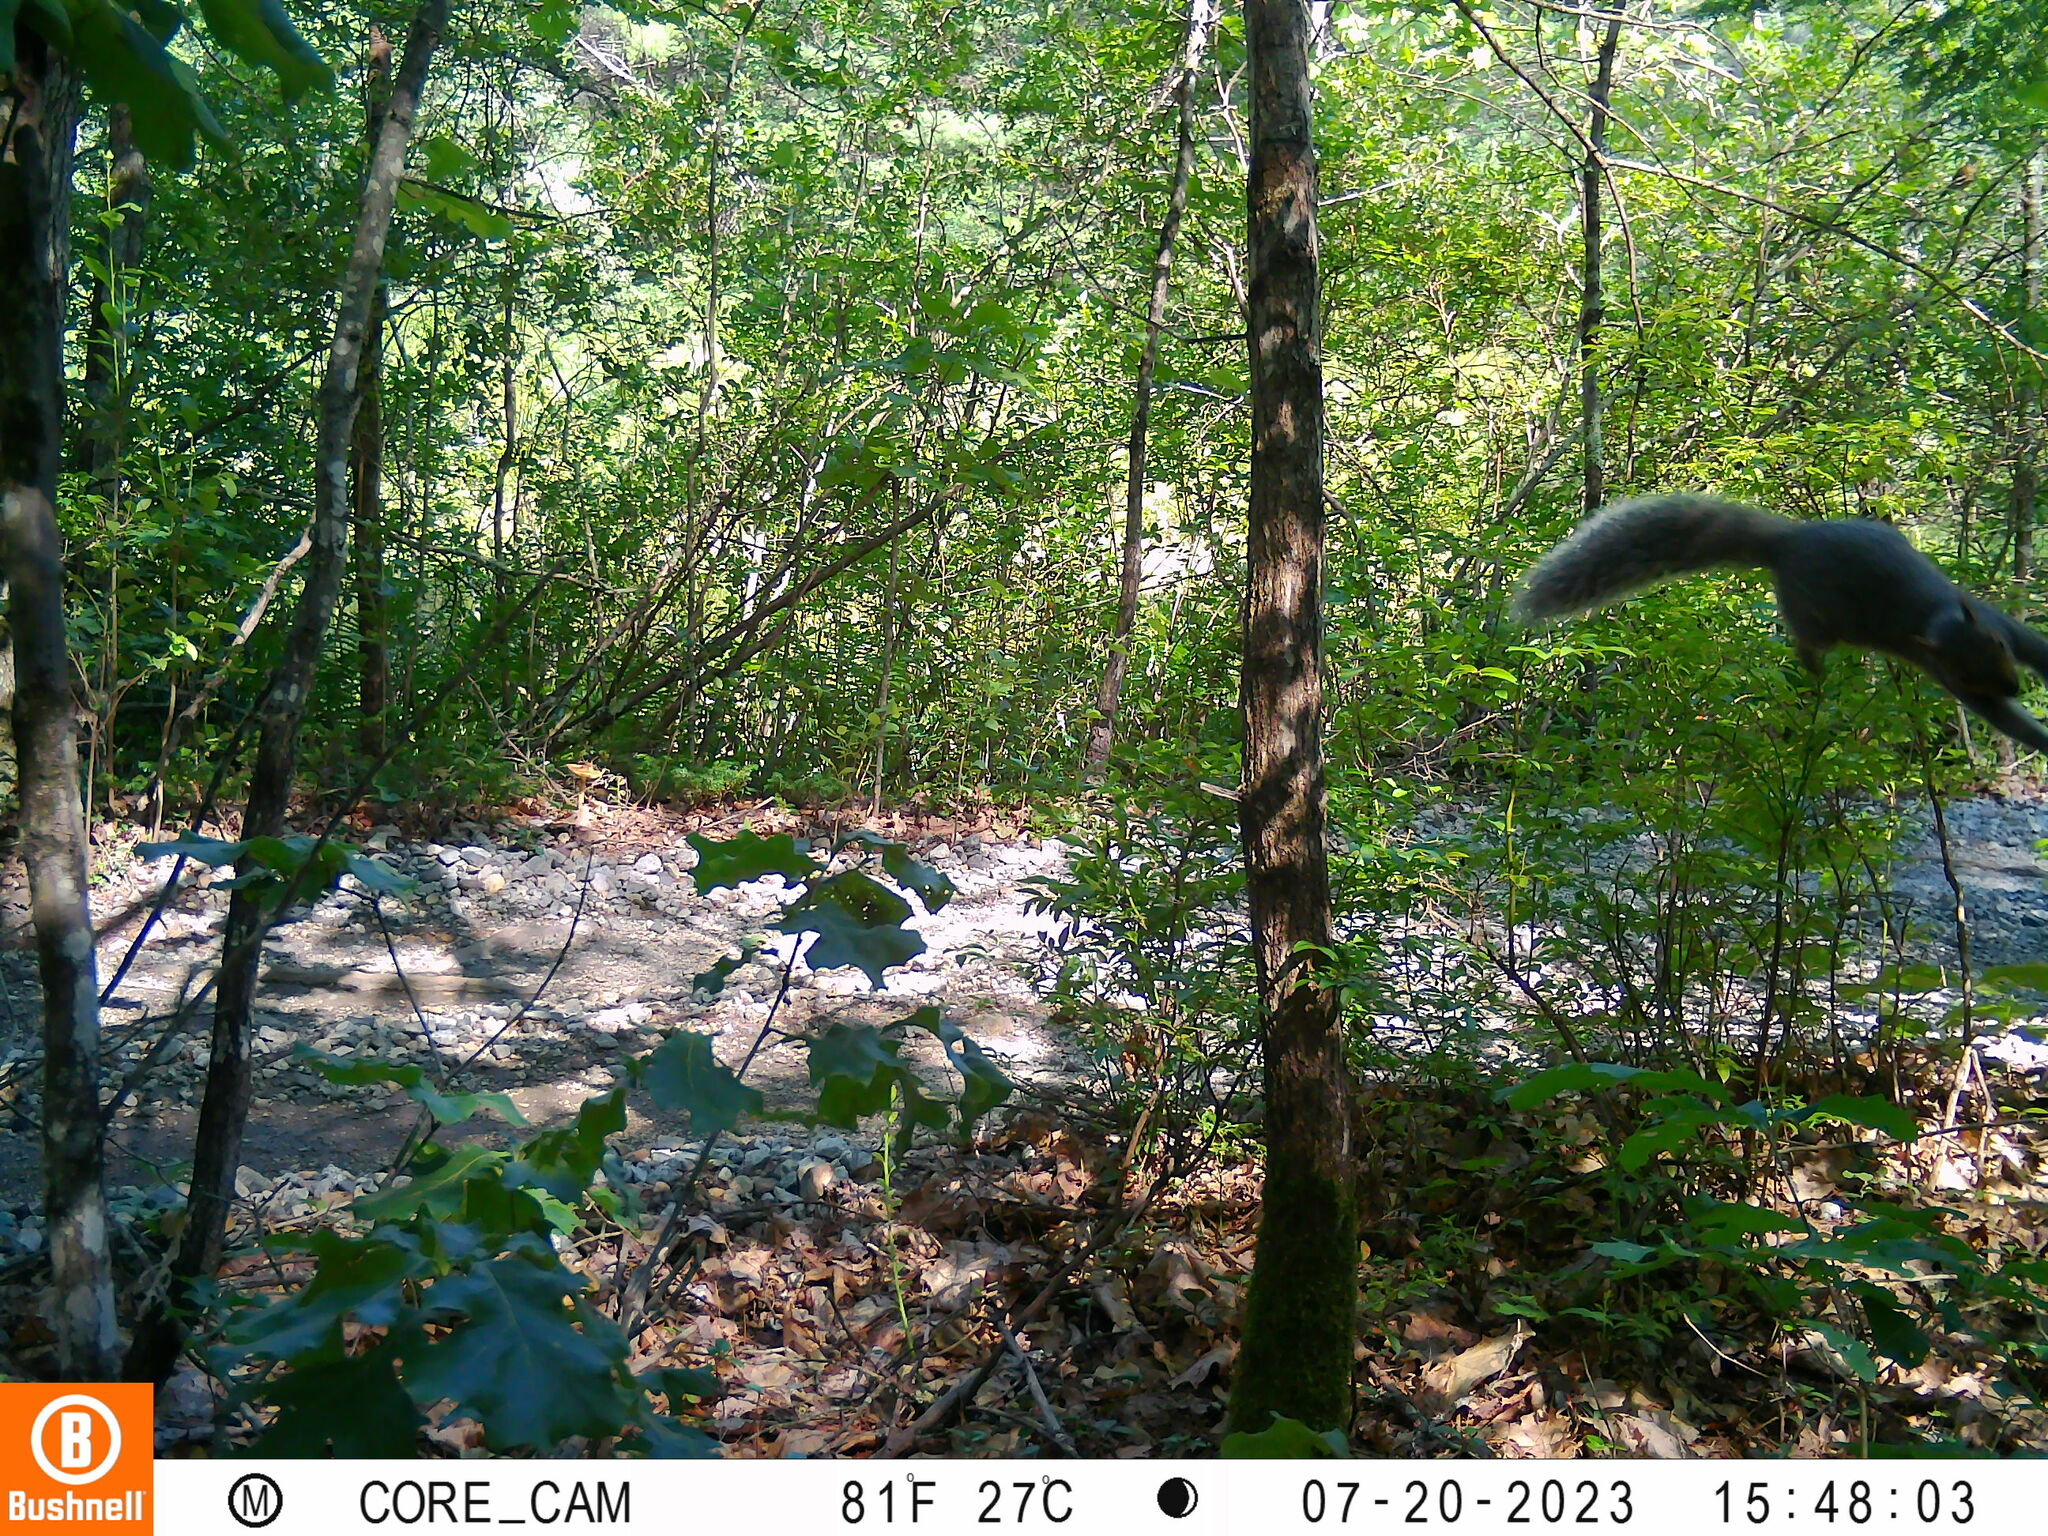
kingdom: Animalia
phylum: Chordata
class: Mammalia
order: Rodentia
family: Sciuridae
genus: Sciurus
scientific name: Sciurus carolinensis
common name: Eastern gray squirrel
